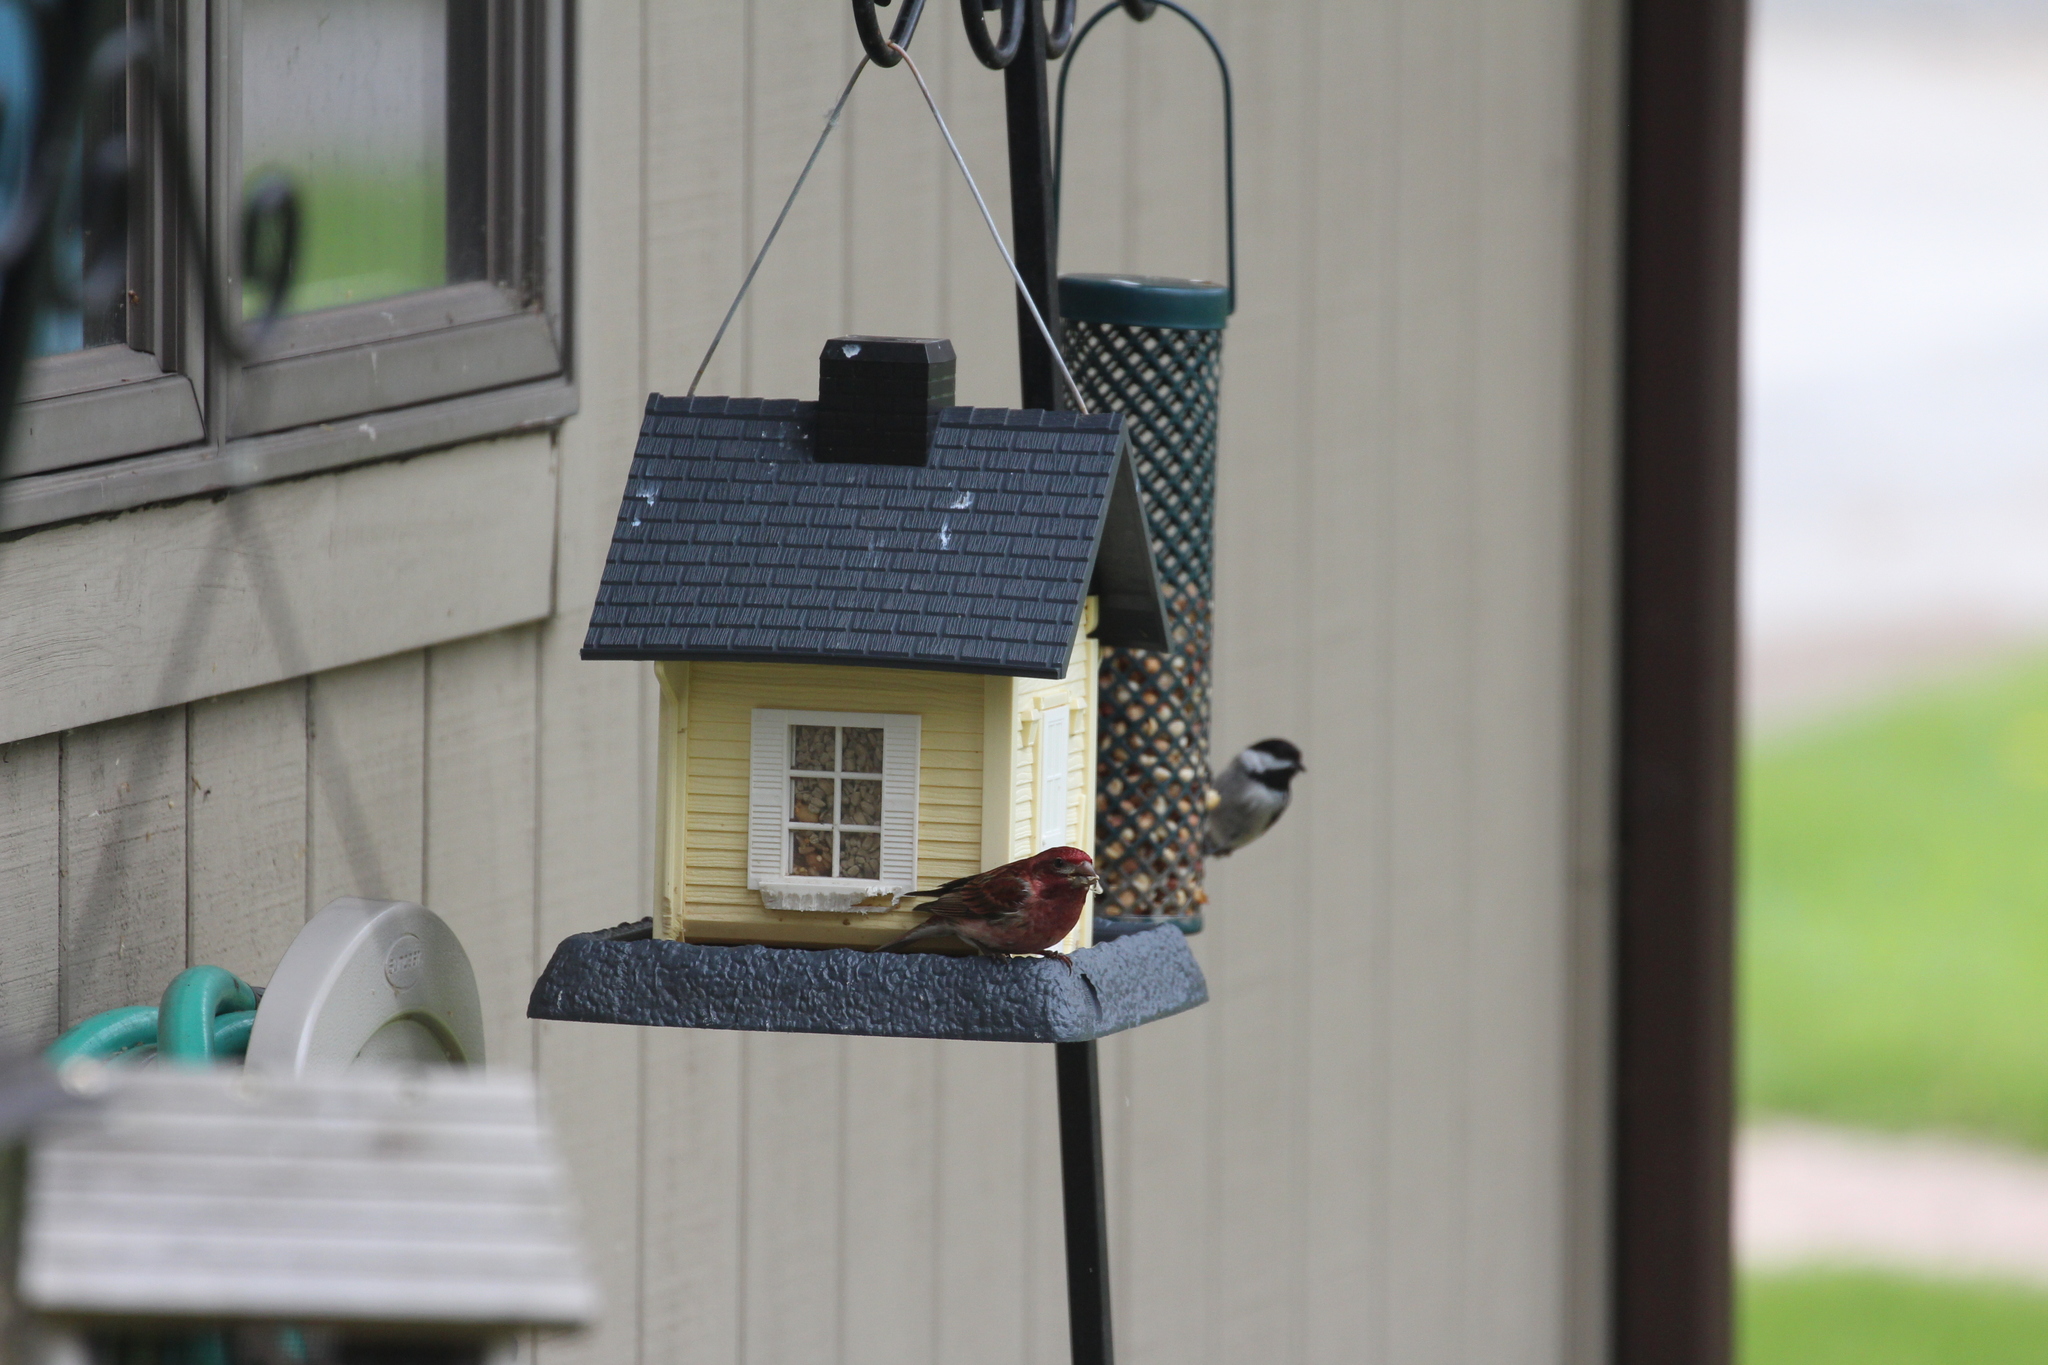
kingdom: Animalia
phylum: Chordata
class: Aves
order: Passeriformes
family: Paridae
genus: Poecile
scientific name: Poecile atricapillus
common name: Black-capped chickadee
